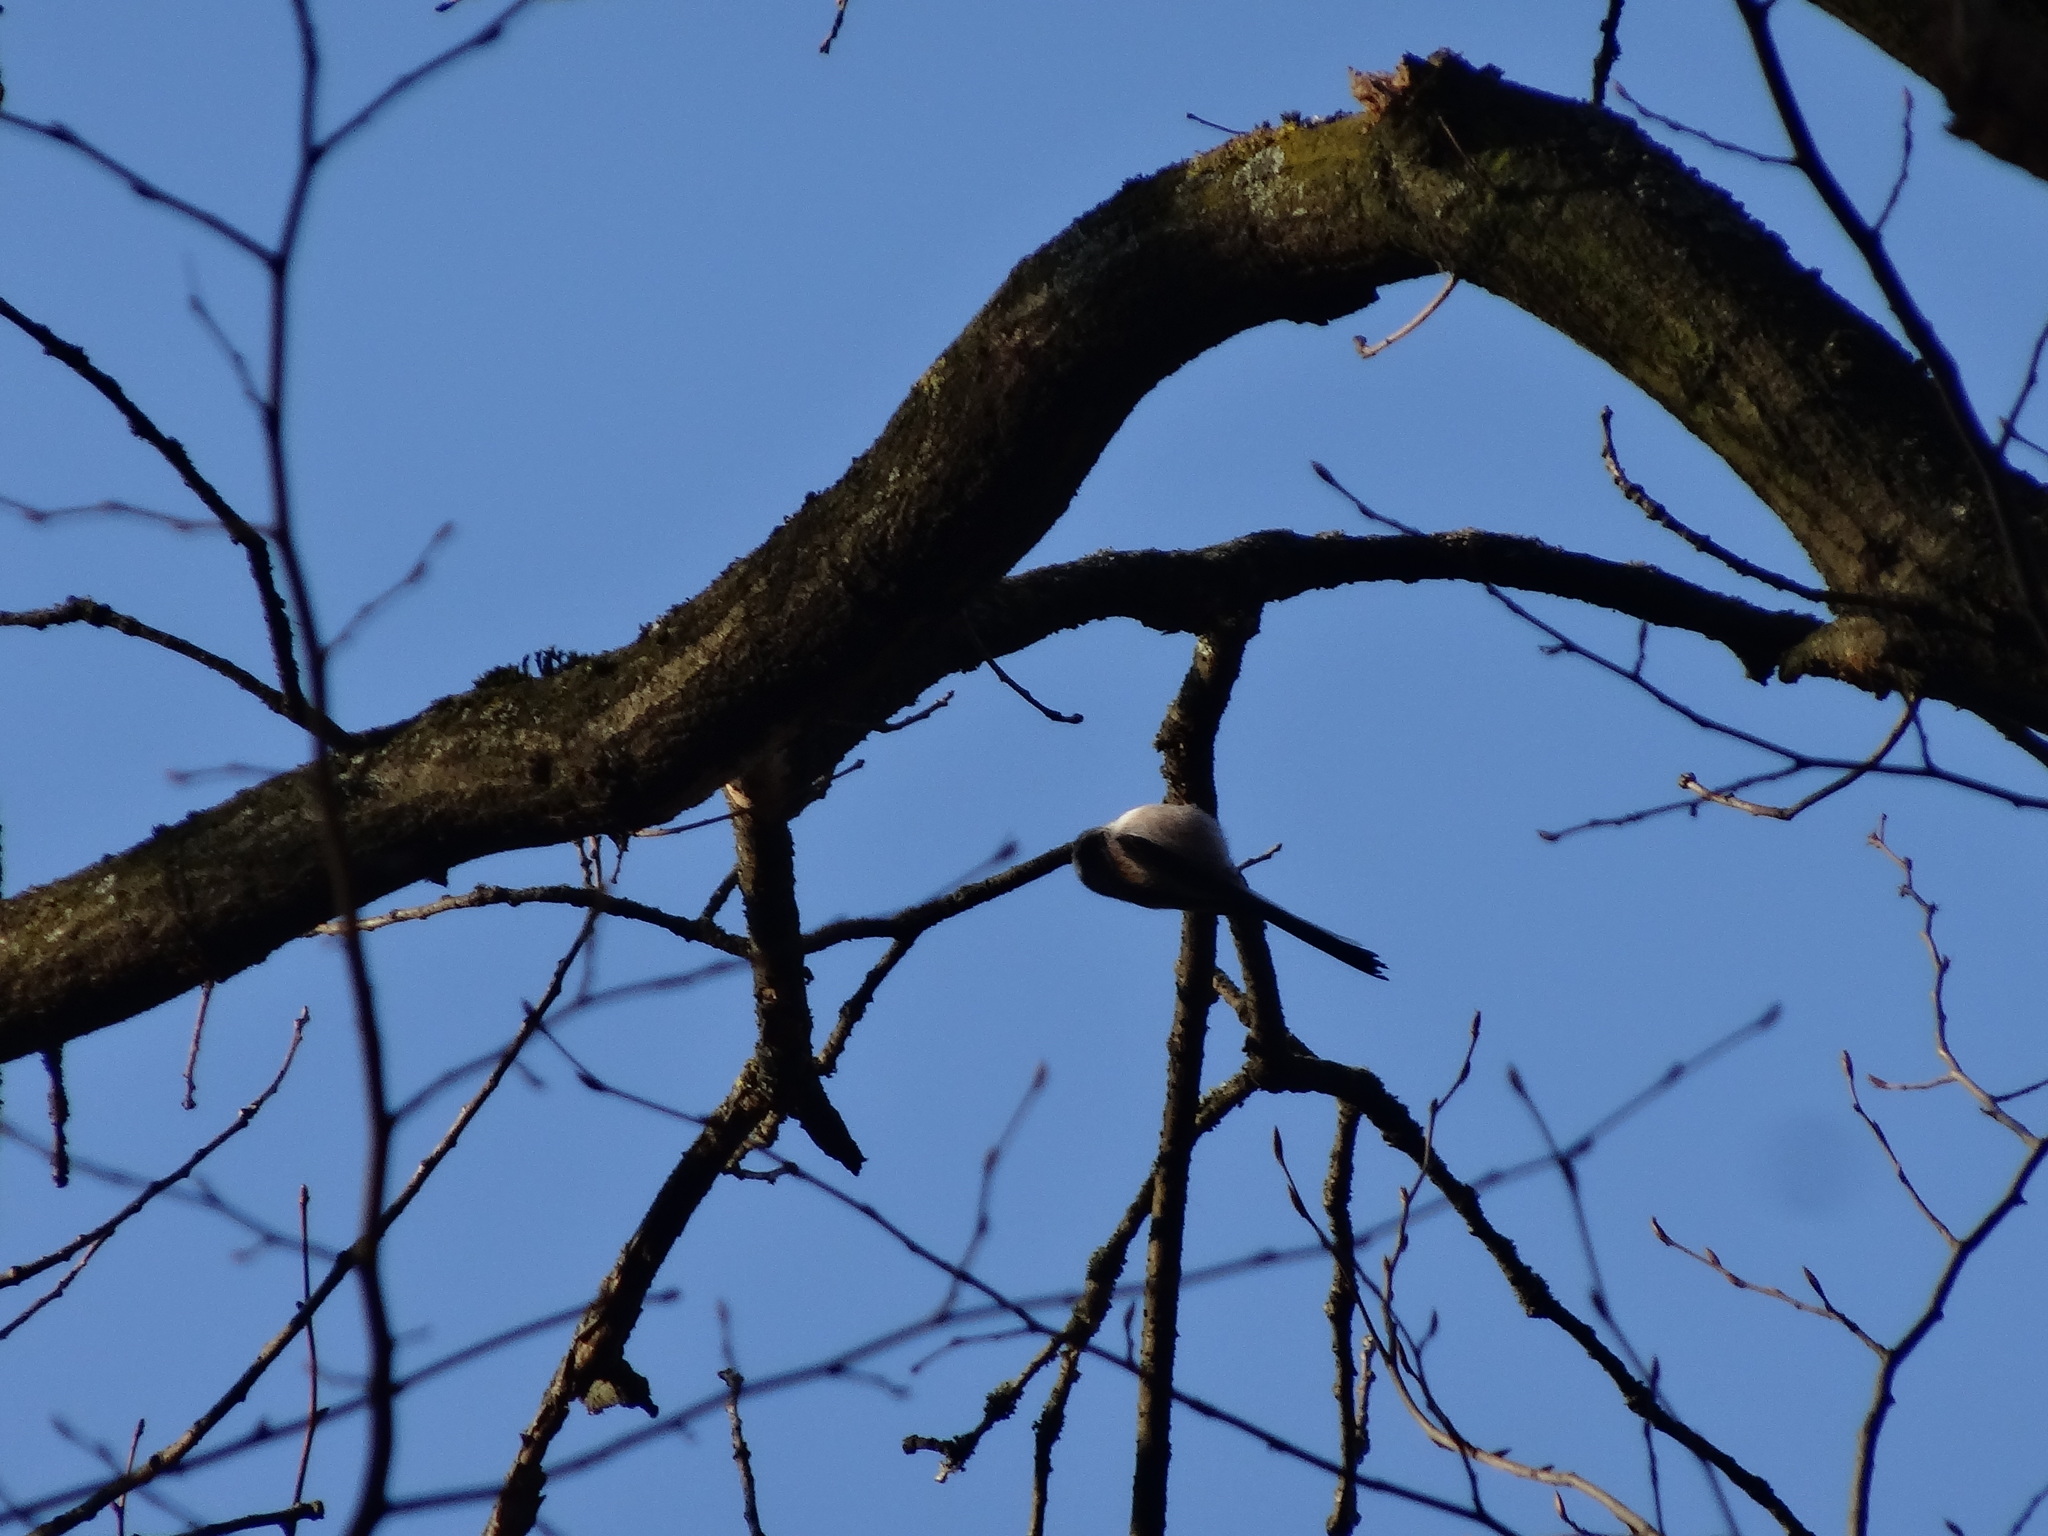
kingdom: Animalia
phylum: Chordata
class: Aves
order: Passeriformes
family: Aegithalidae
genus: Aegithalos
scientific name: Aegithalos caudatus
